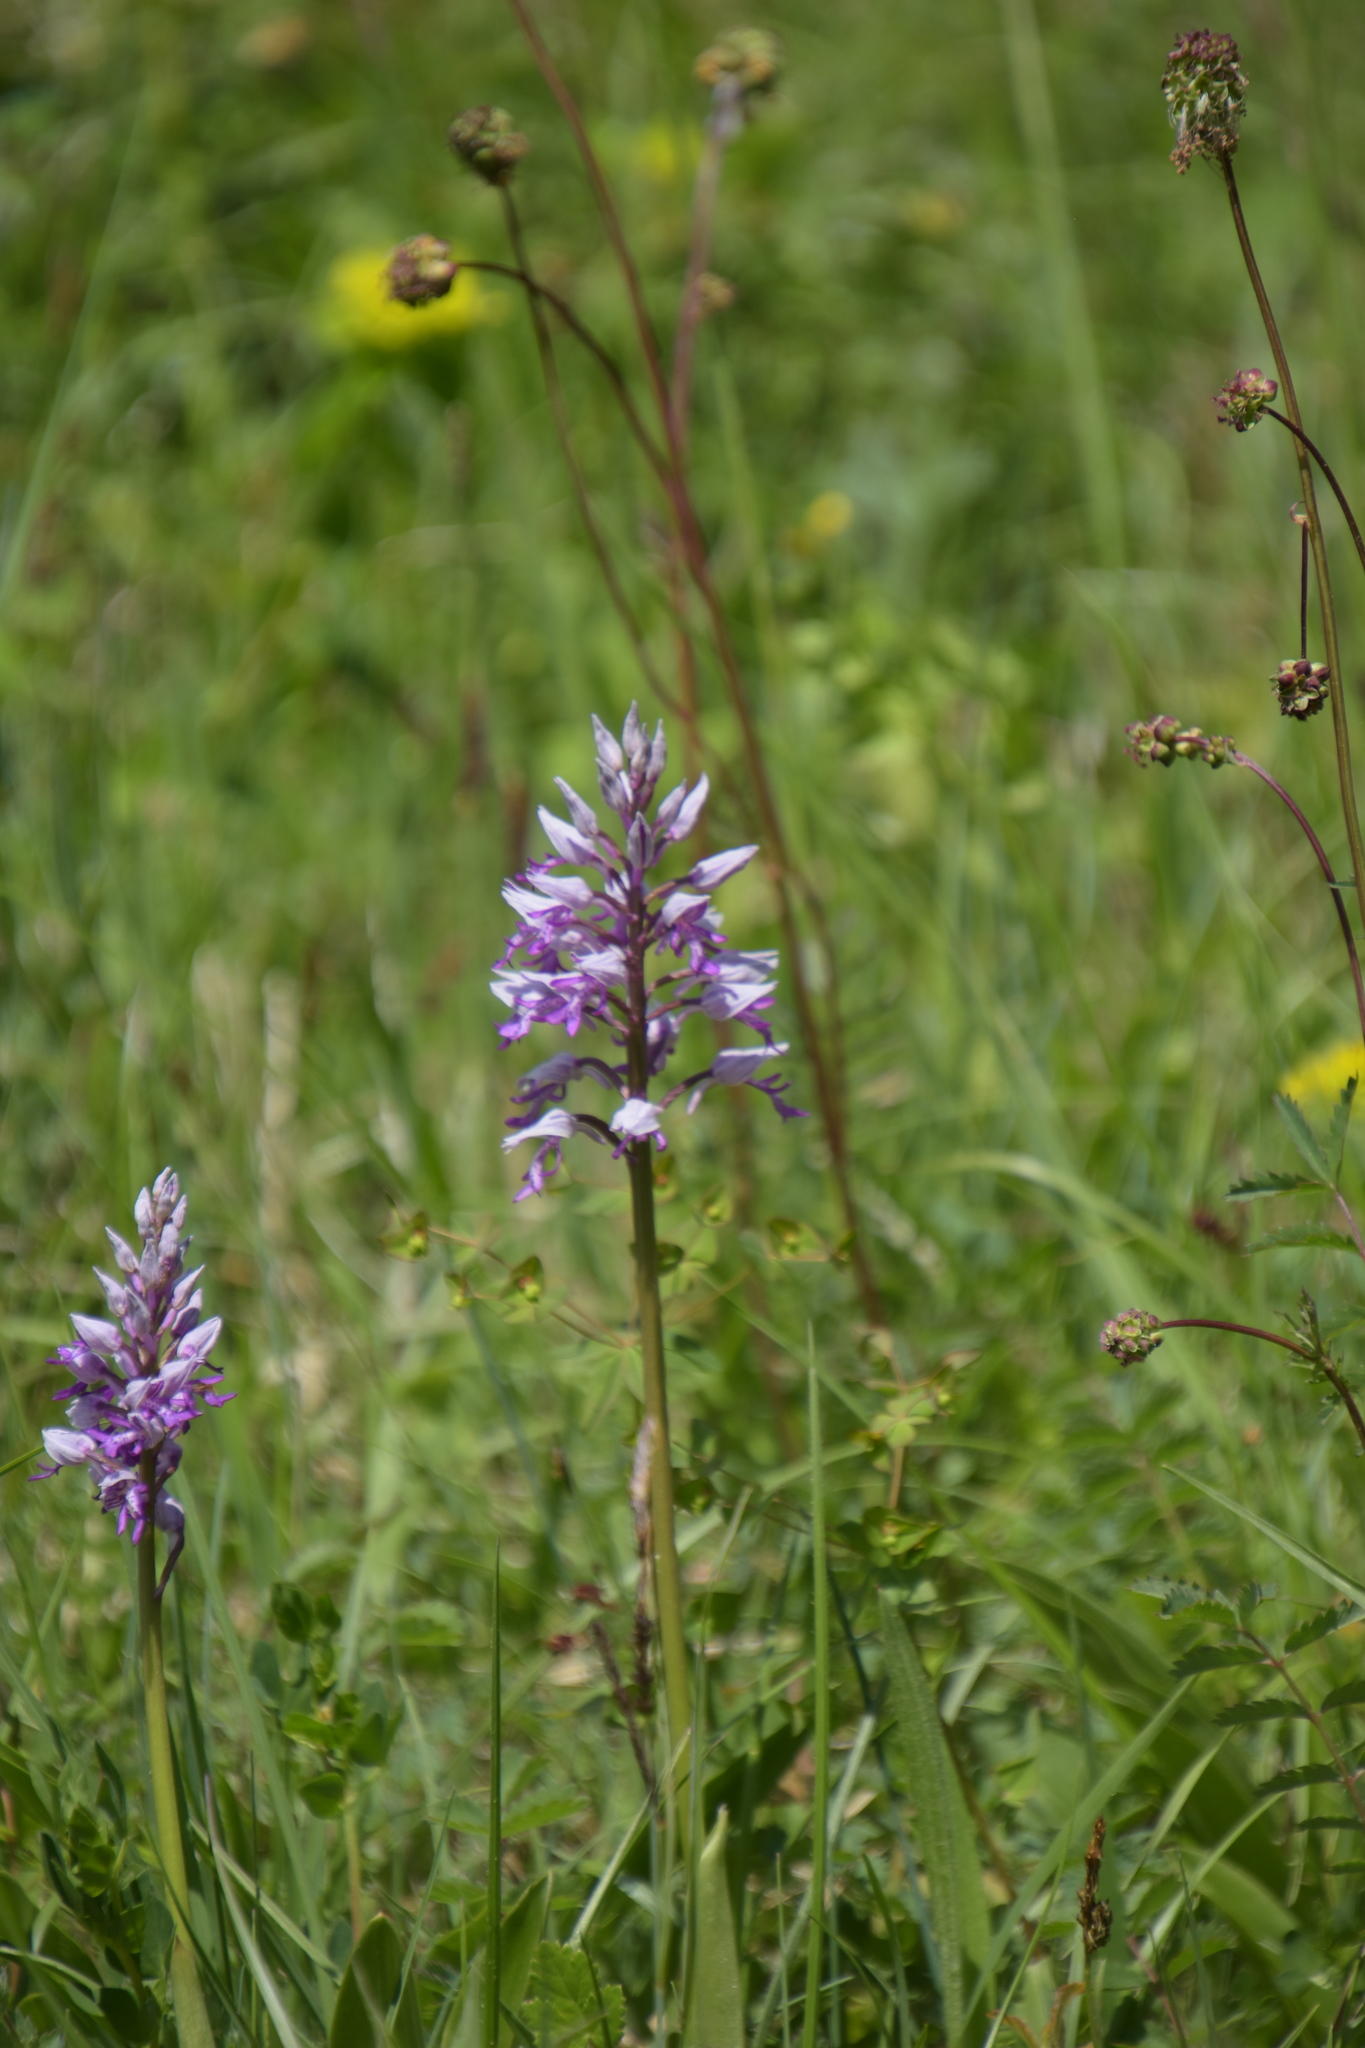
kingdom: Plantae
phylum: Tracheophyta
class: Liliopsida
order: Asparagales
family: Orchidaceae
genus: Orchis
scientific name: Orchis militaris
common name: Military orchid
